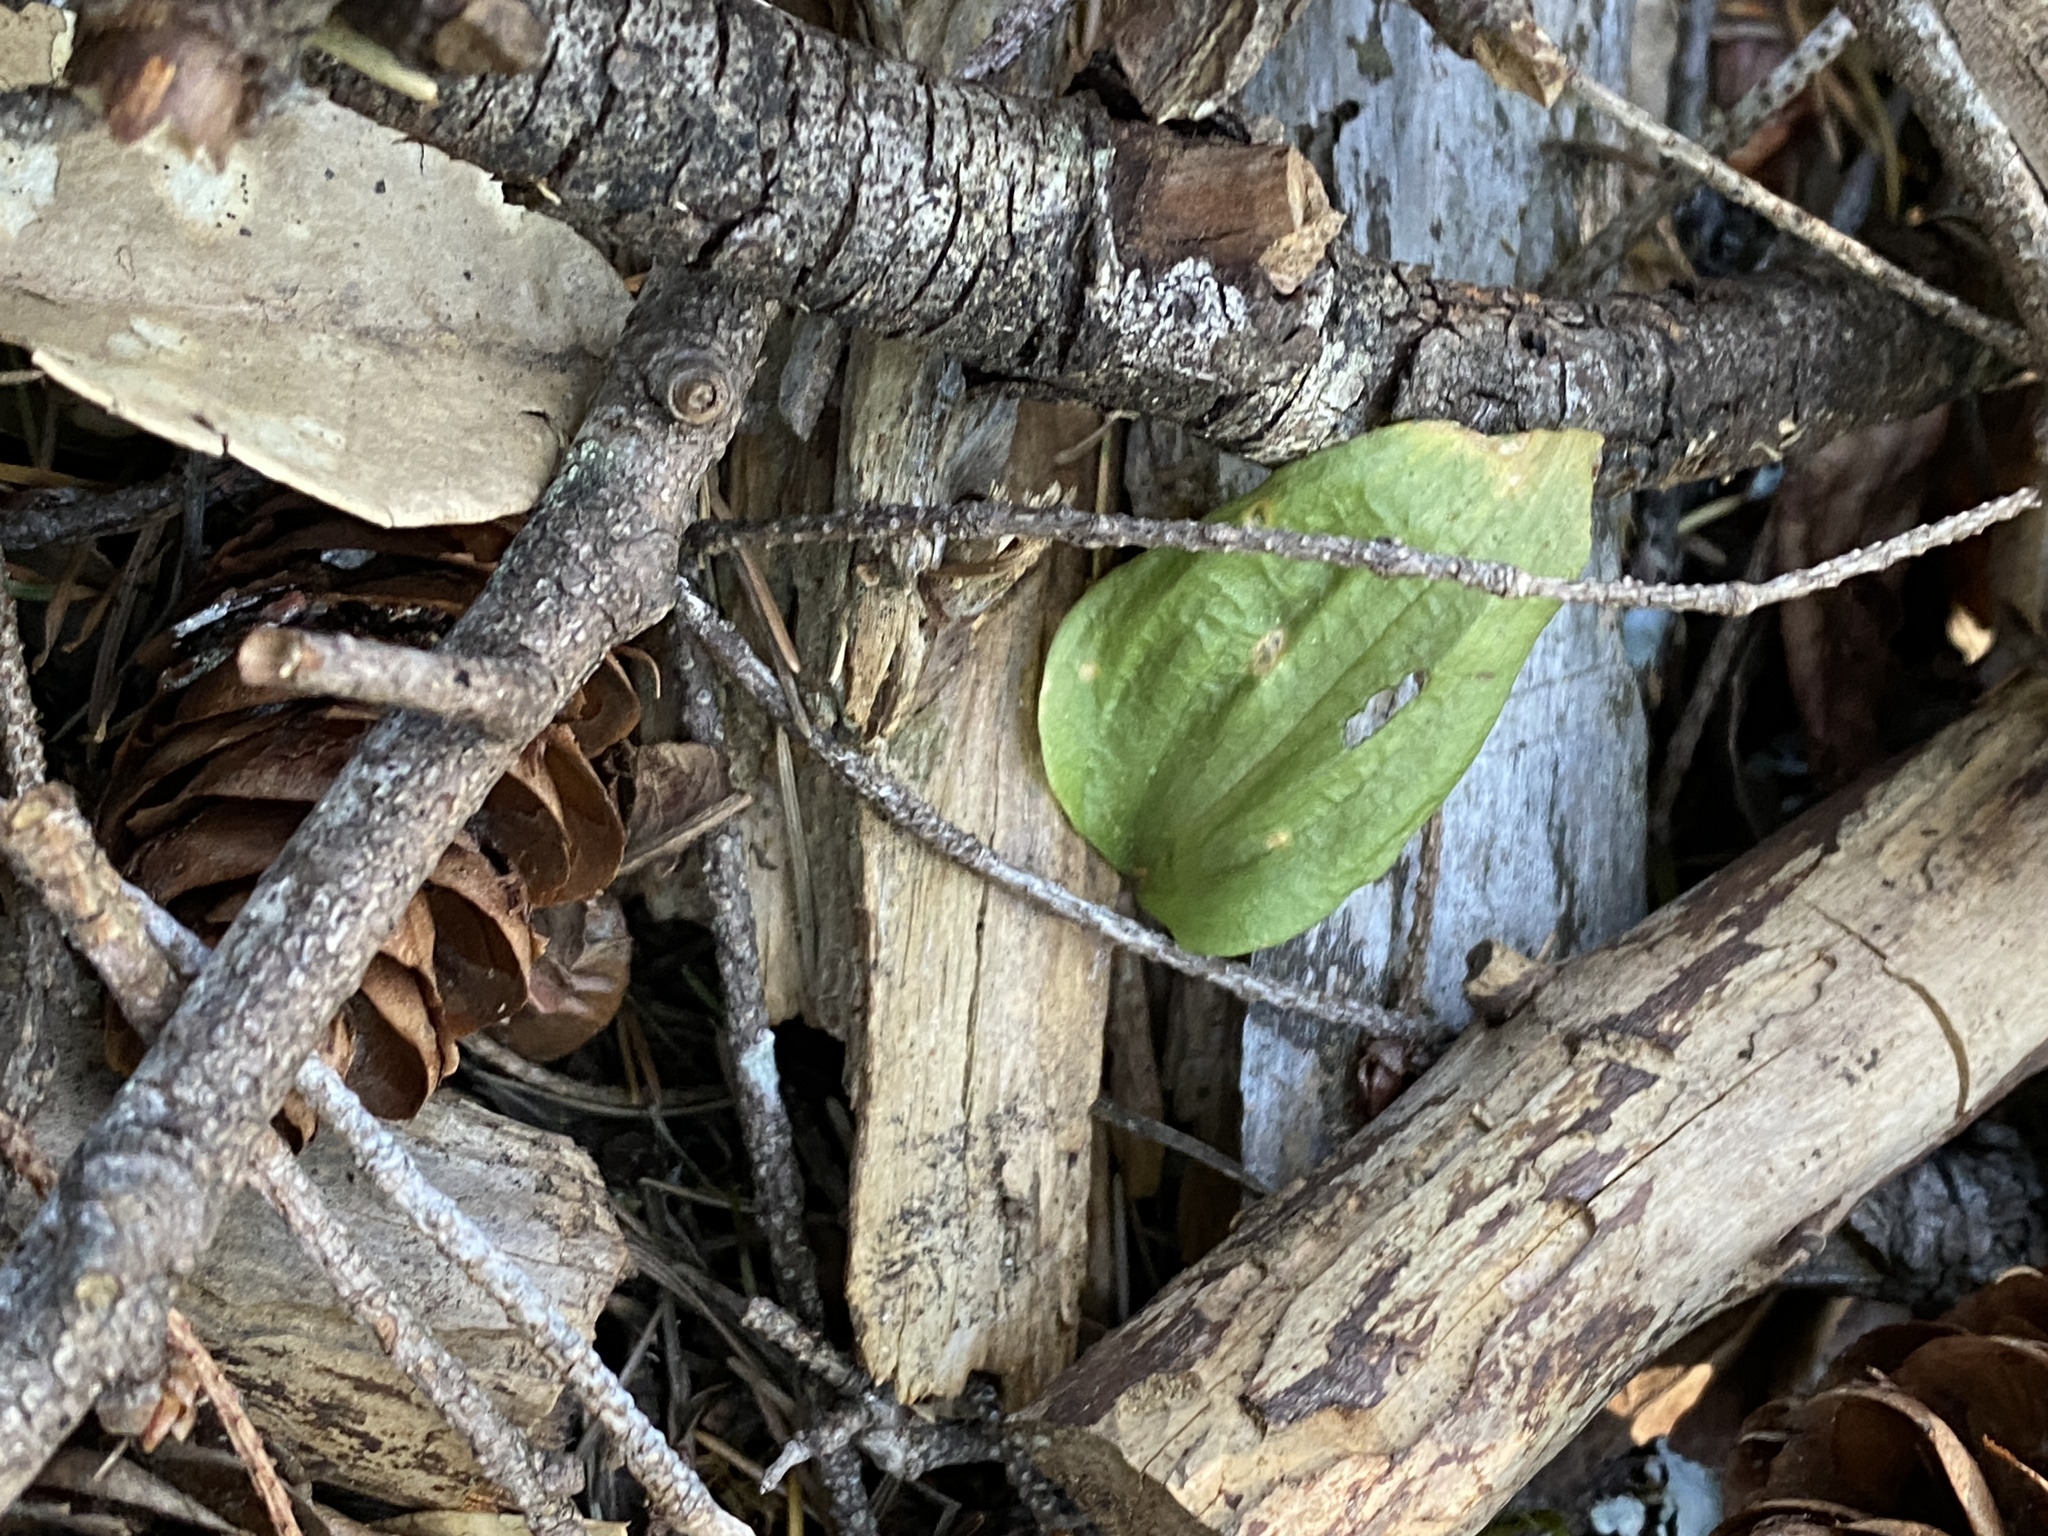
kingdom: Plantae
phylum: Tracheophyta
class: Liliopsida
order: Asparagales
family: Orchidaceae
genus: Calypso
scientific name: Calypso bulbosa
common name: Calypso
